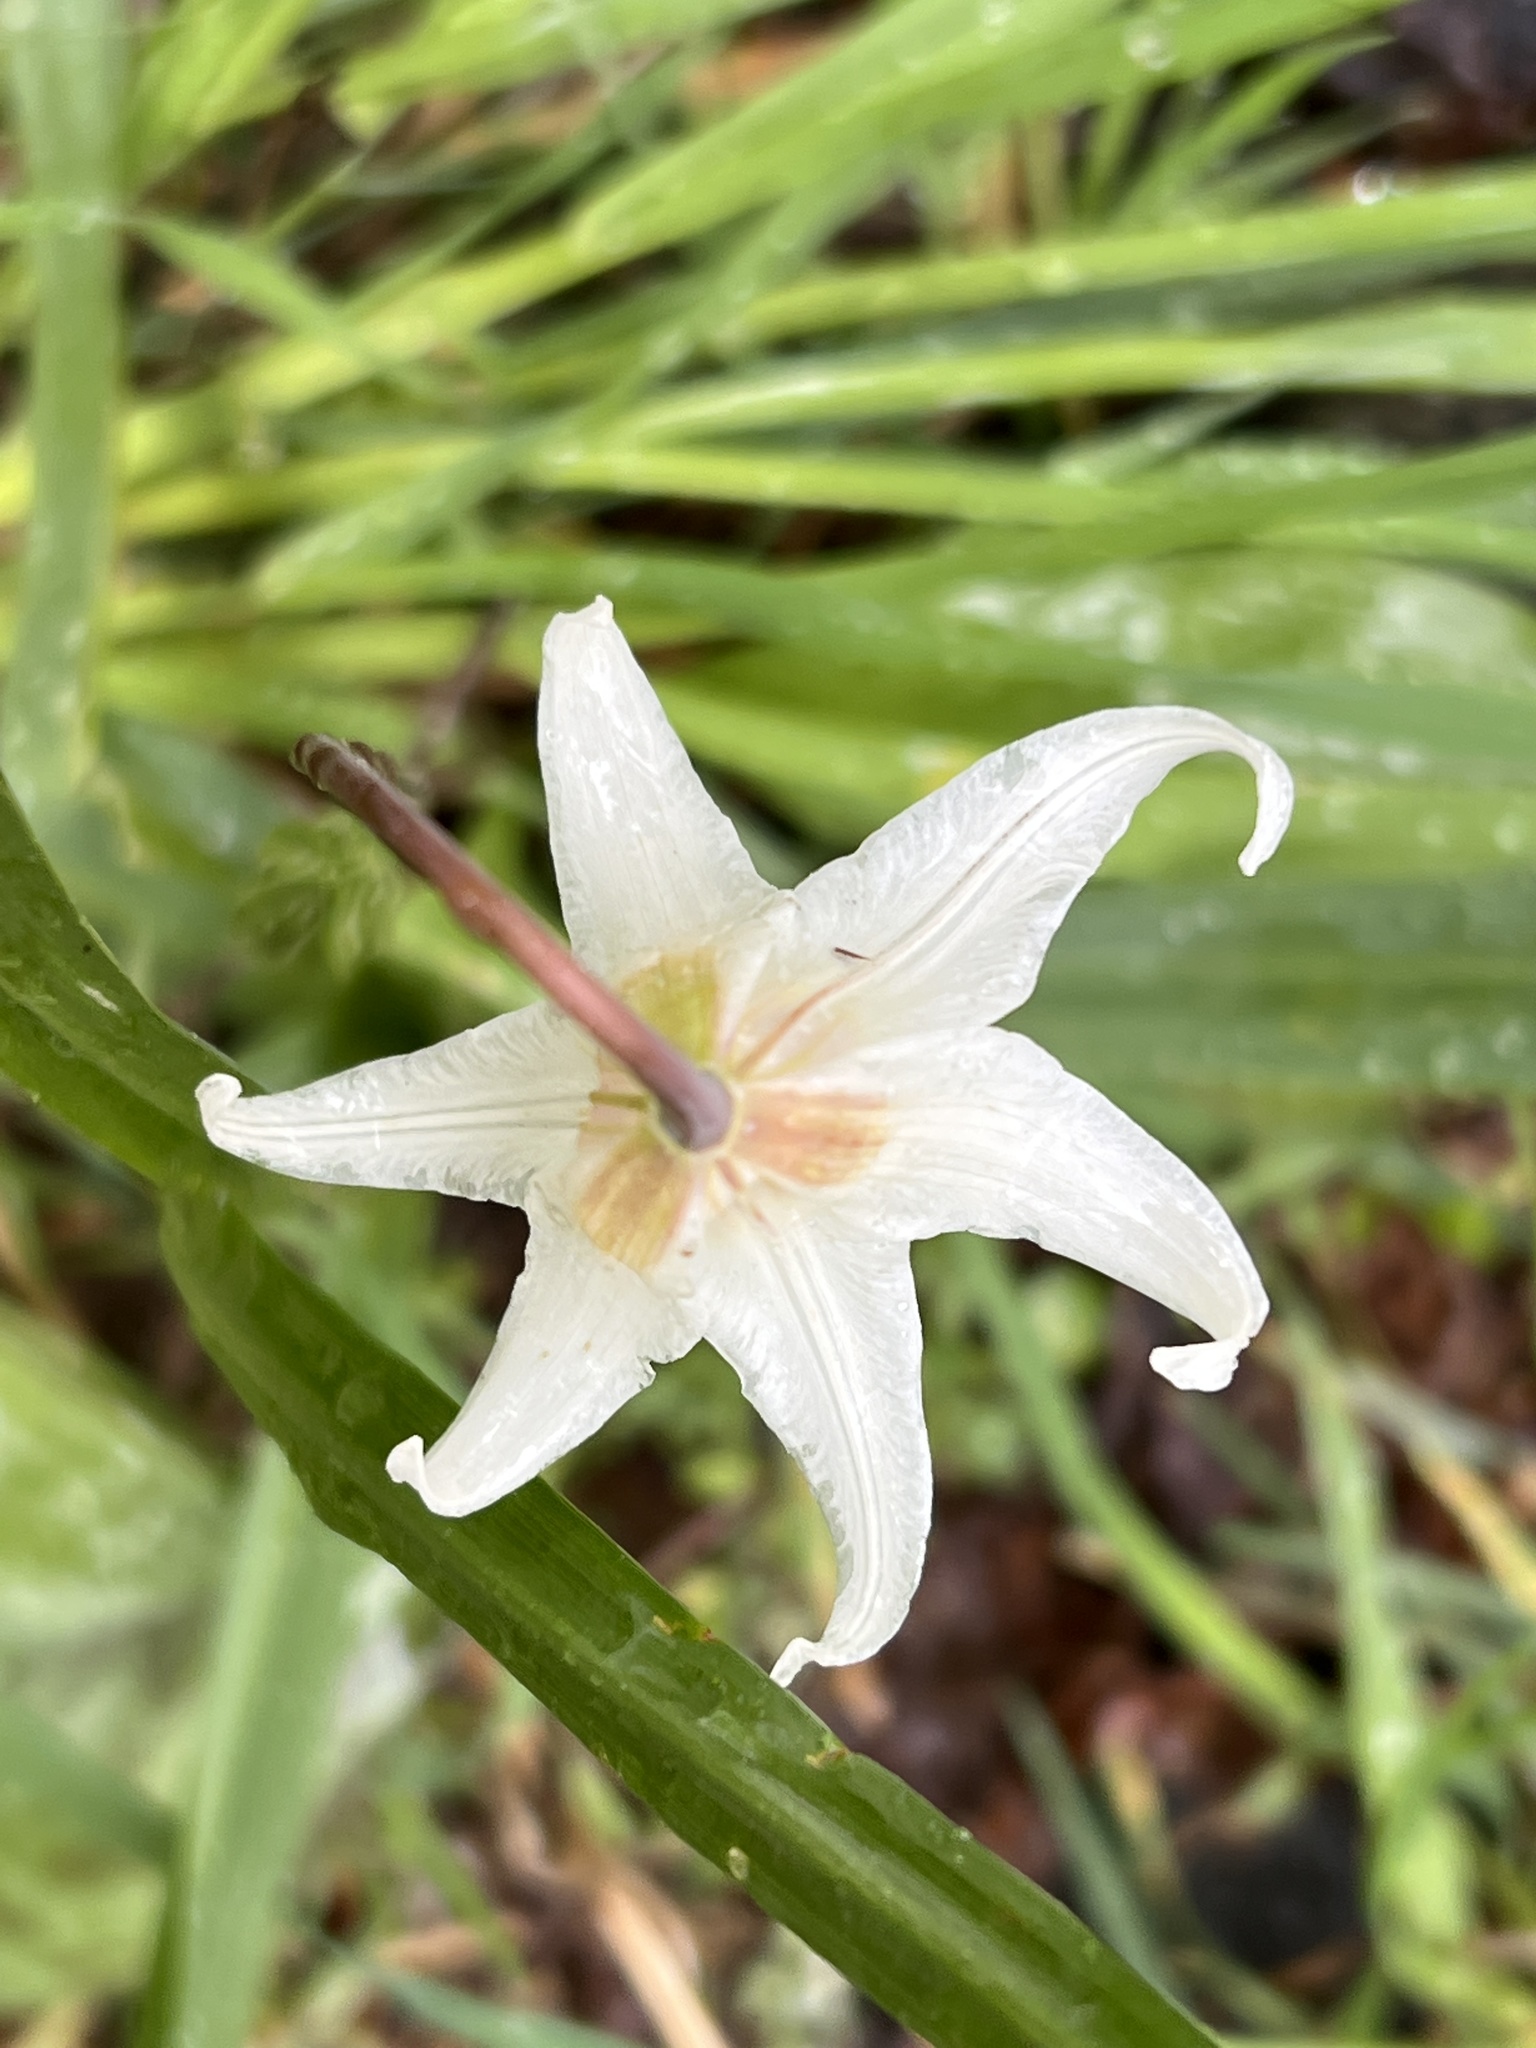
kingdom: Plantae
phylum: Tracheophyta
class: Liliopsida
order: Liliales
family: Liliaceae
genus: Erythronium
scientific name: Erythronium oregonum
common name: Giant adder's-tongue
